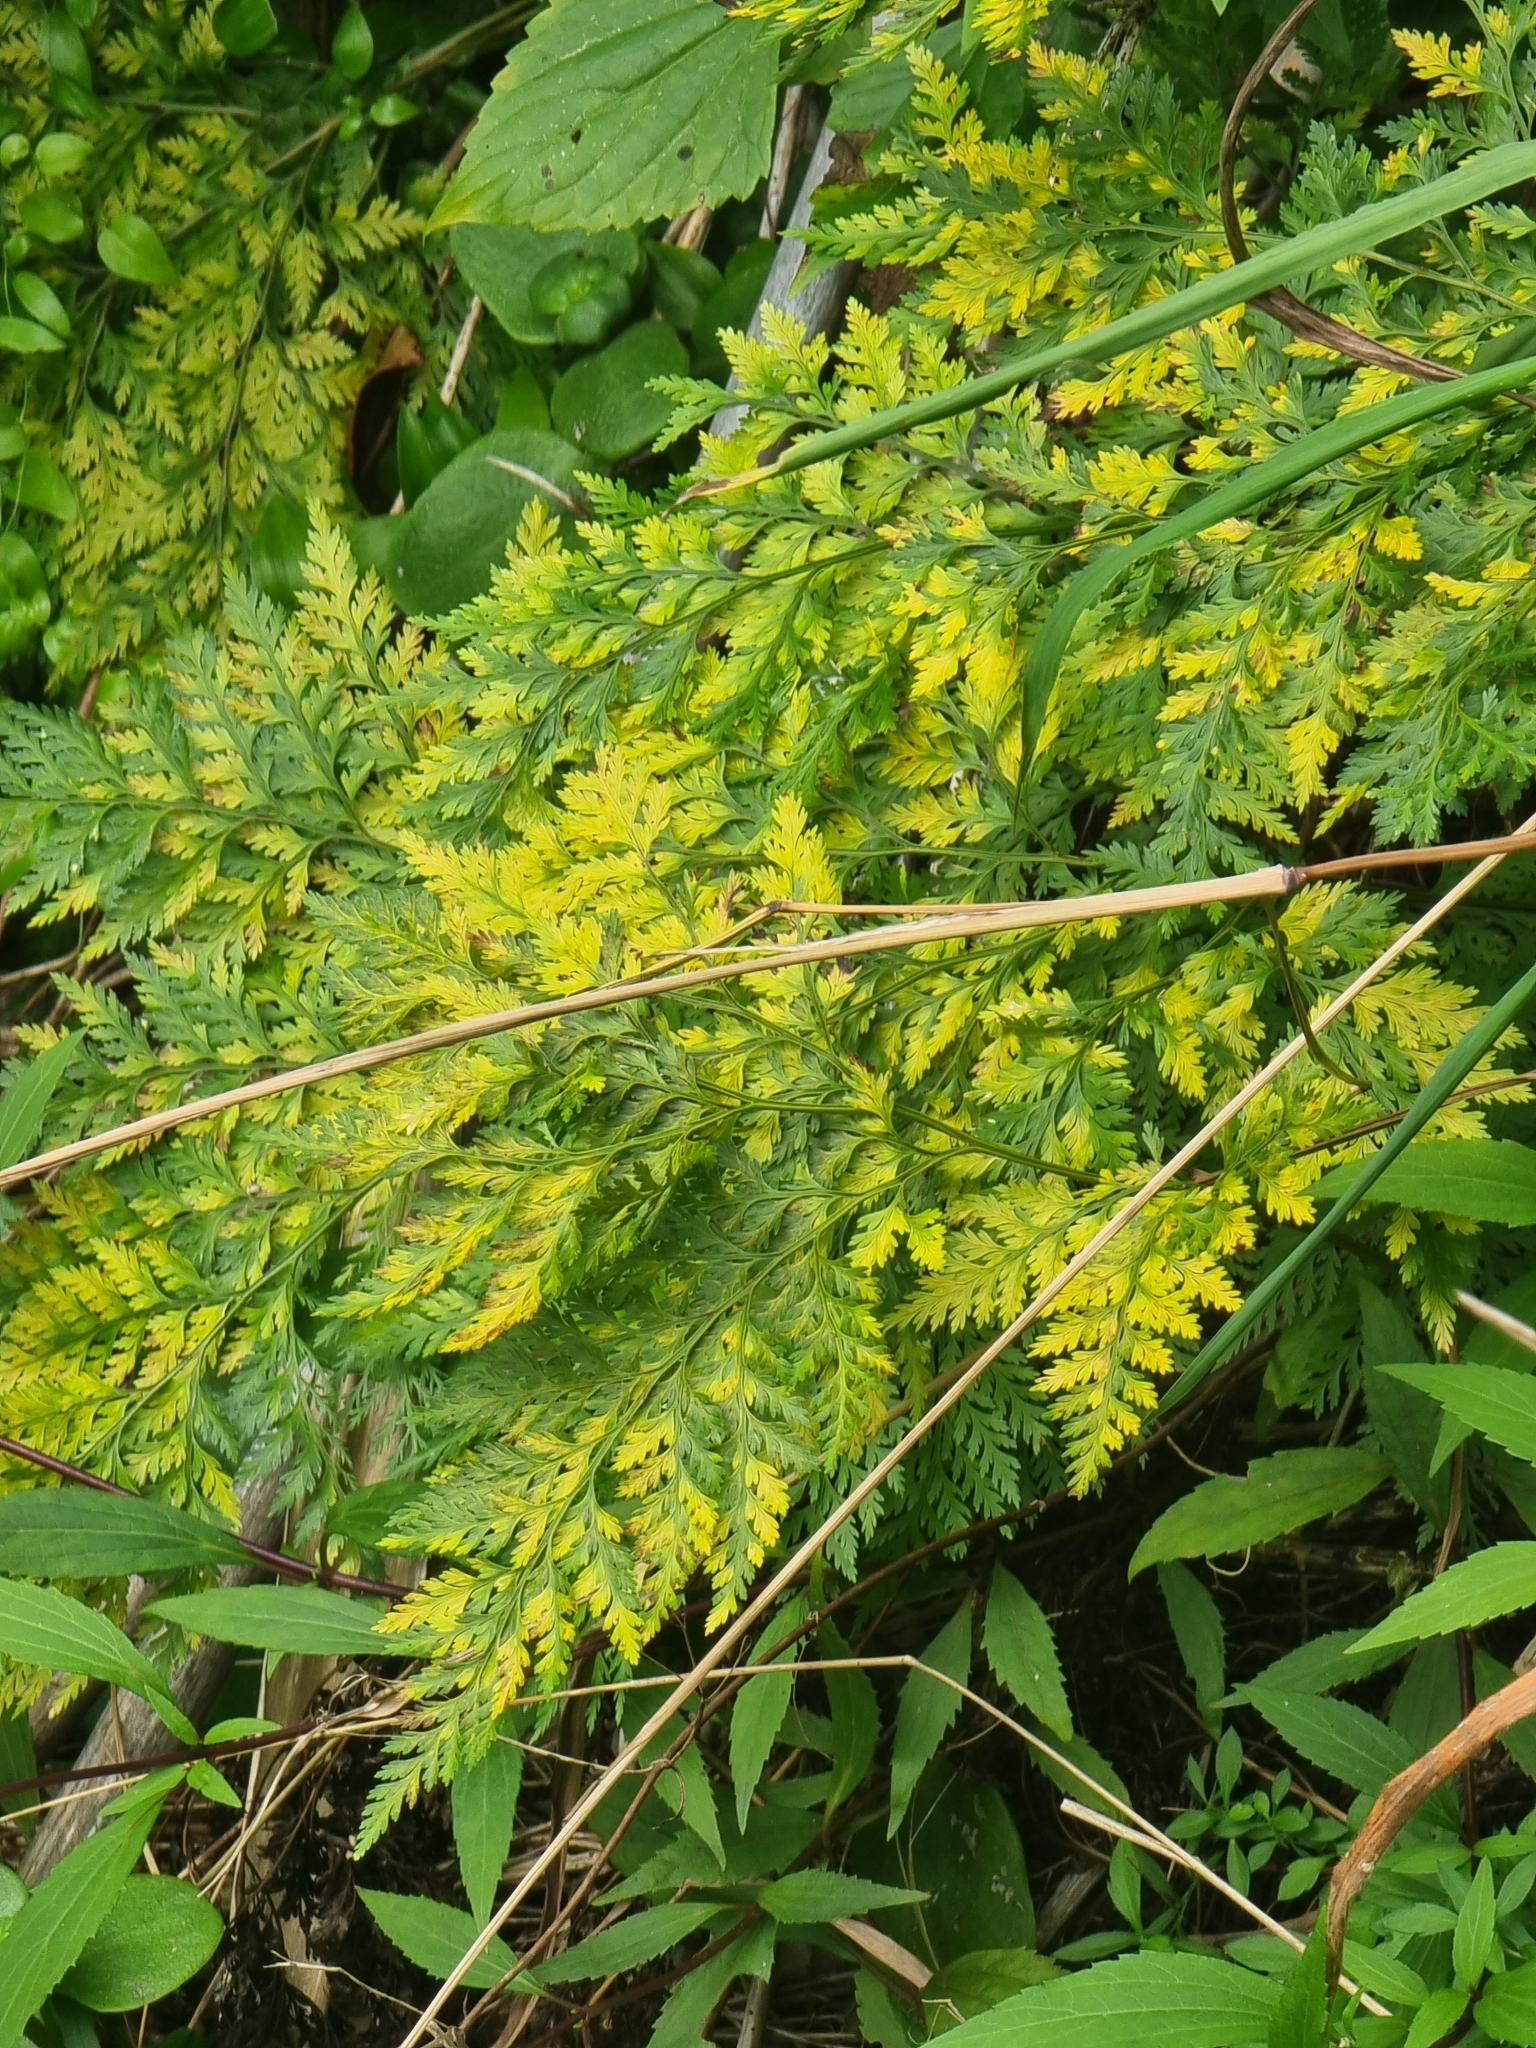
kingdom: Plantae
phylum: Tracheophyta
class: Polypodiopsida
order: Polypodiales
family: Davalliaceae
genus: Davallia
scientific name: Davallia canariensis
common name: Hare's-foot fern
